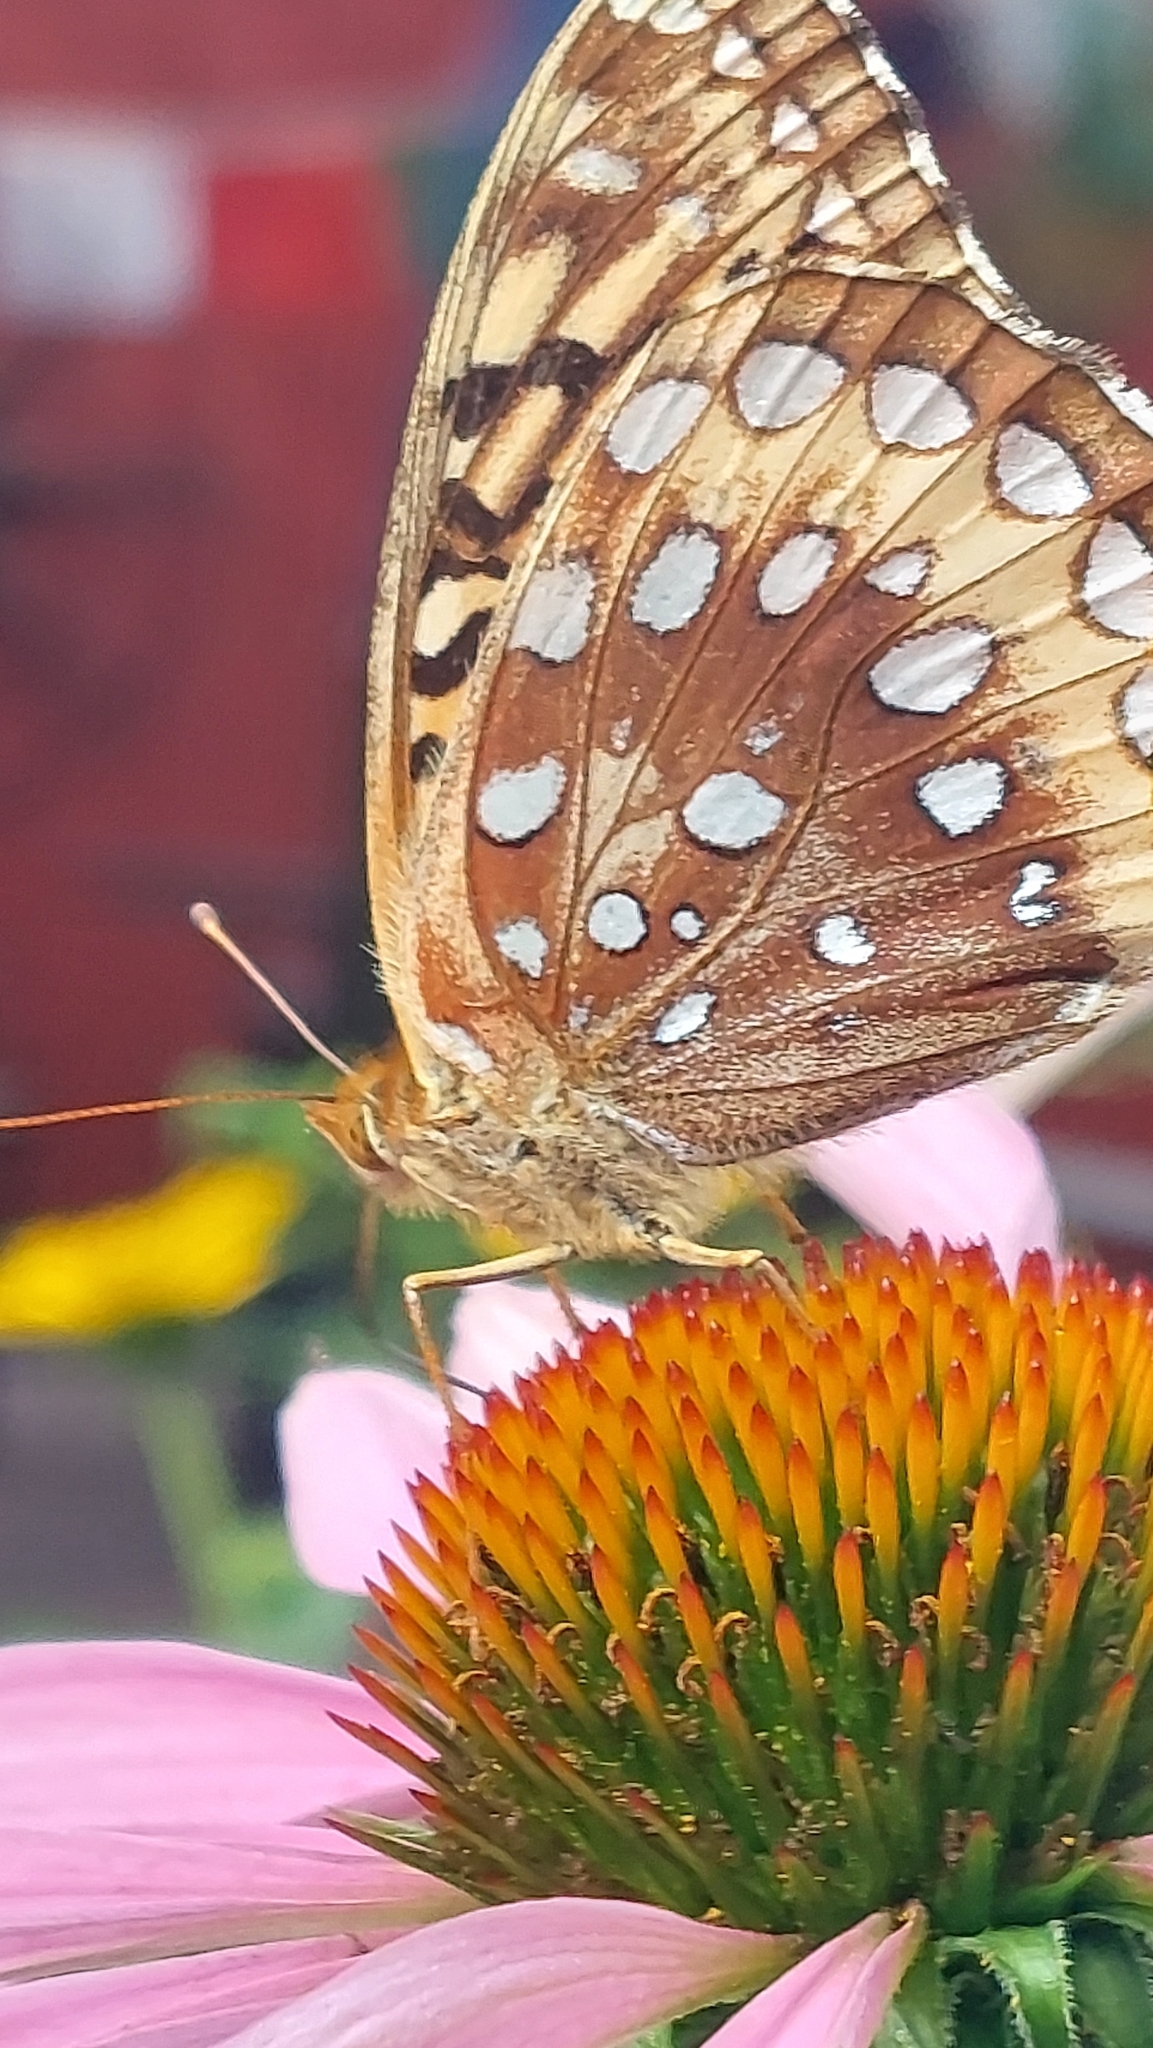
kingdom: Animalia
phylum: Arthropoda
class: Insecta
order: Lepidoptera
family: Nymphalidae
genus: Speyeria
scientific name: Speyeria cybele
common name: Great spangled fritillary
